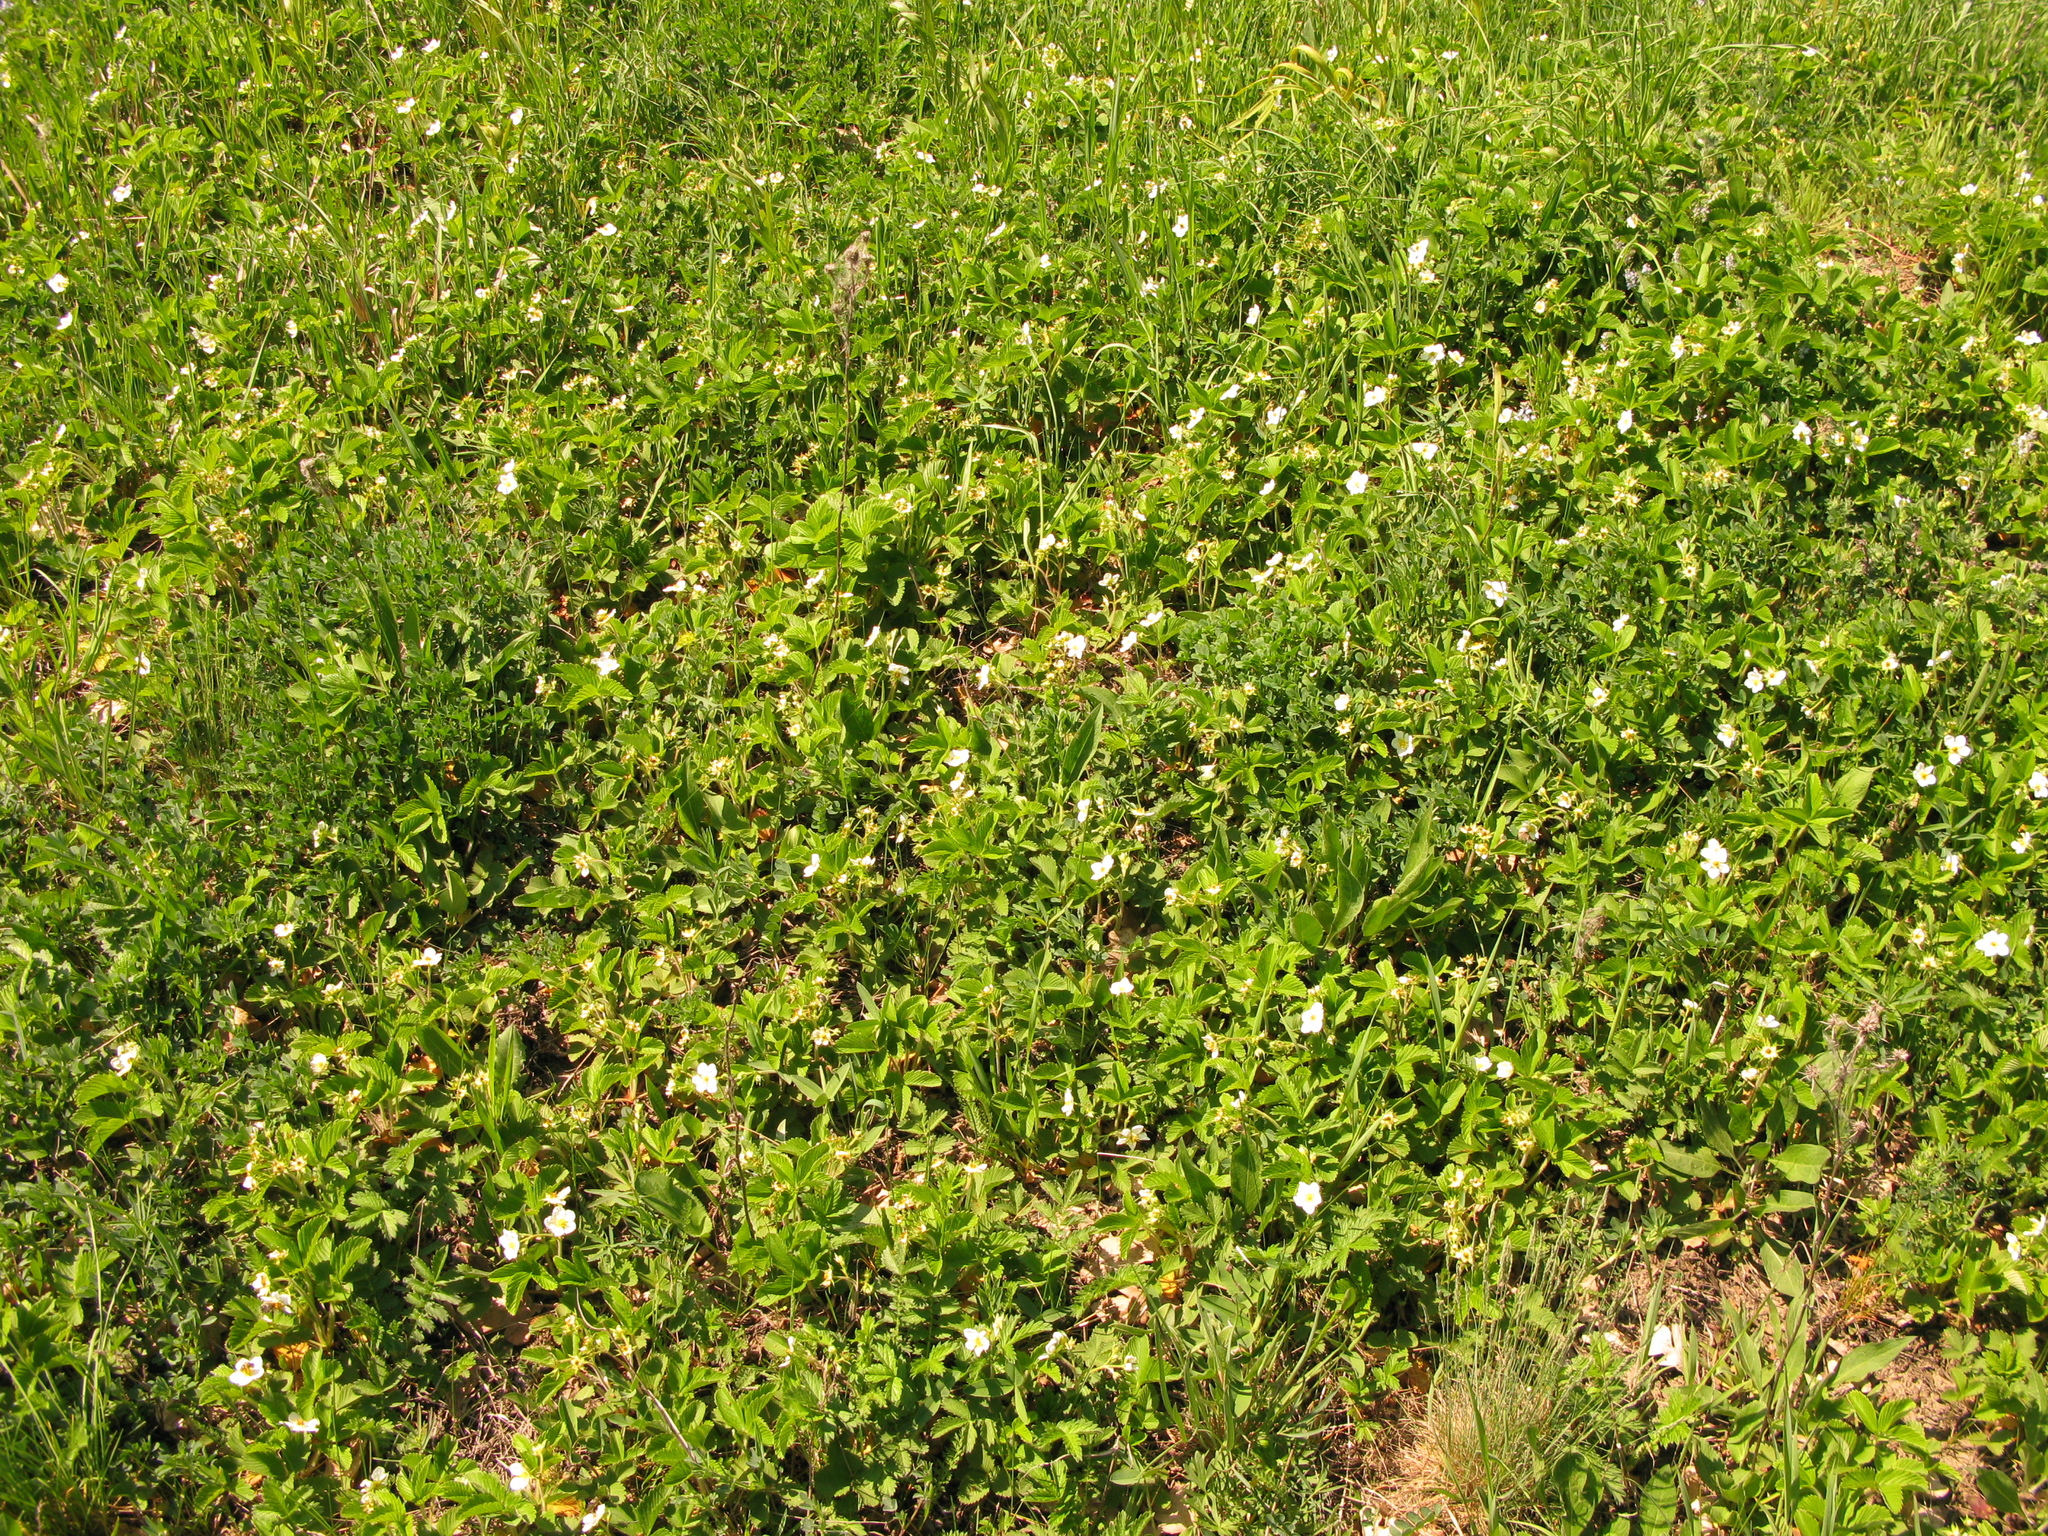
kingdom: Plantae
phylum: Tracheophyta
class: Magnoliopsida
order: Rosales
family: Rosaceae
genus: Fragaria
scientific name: Fragaria viridis
